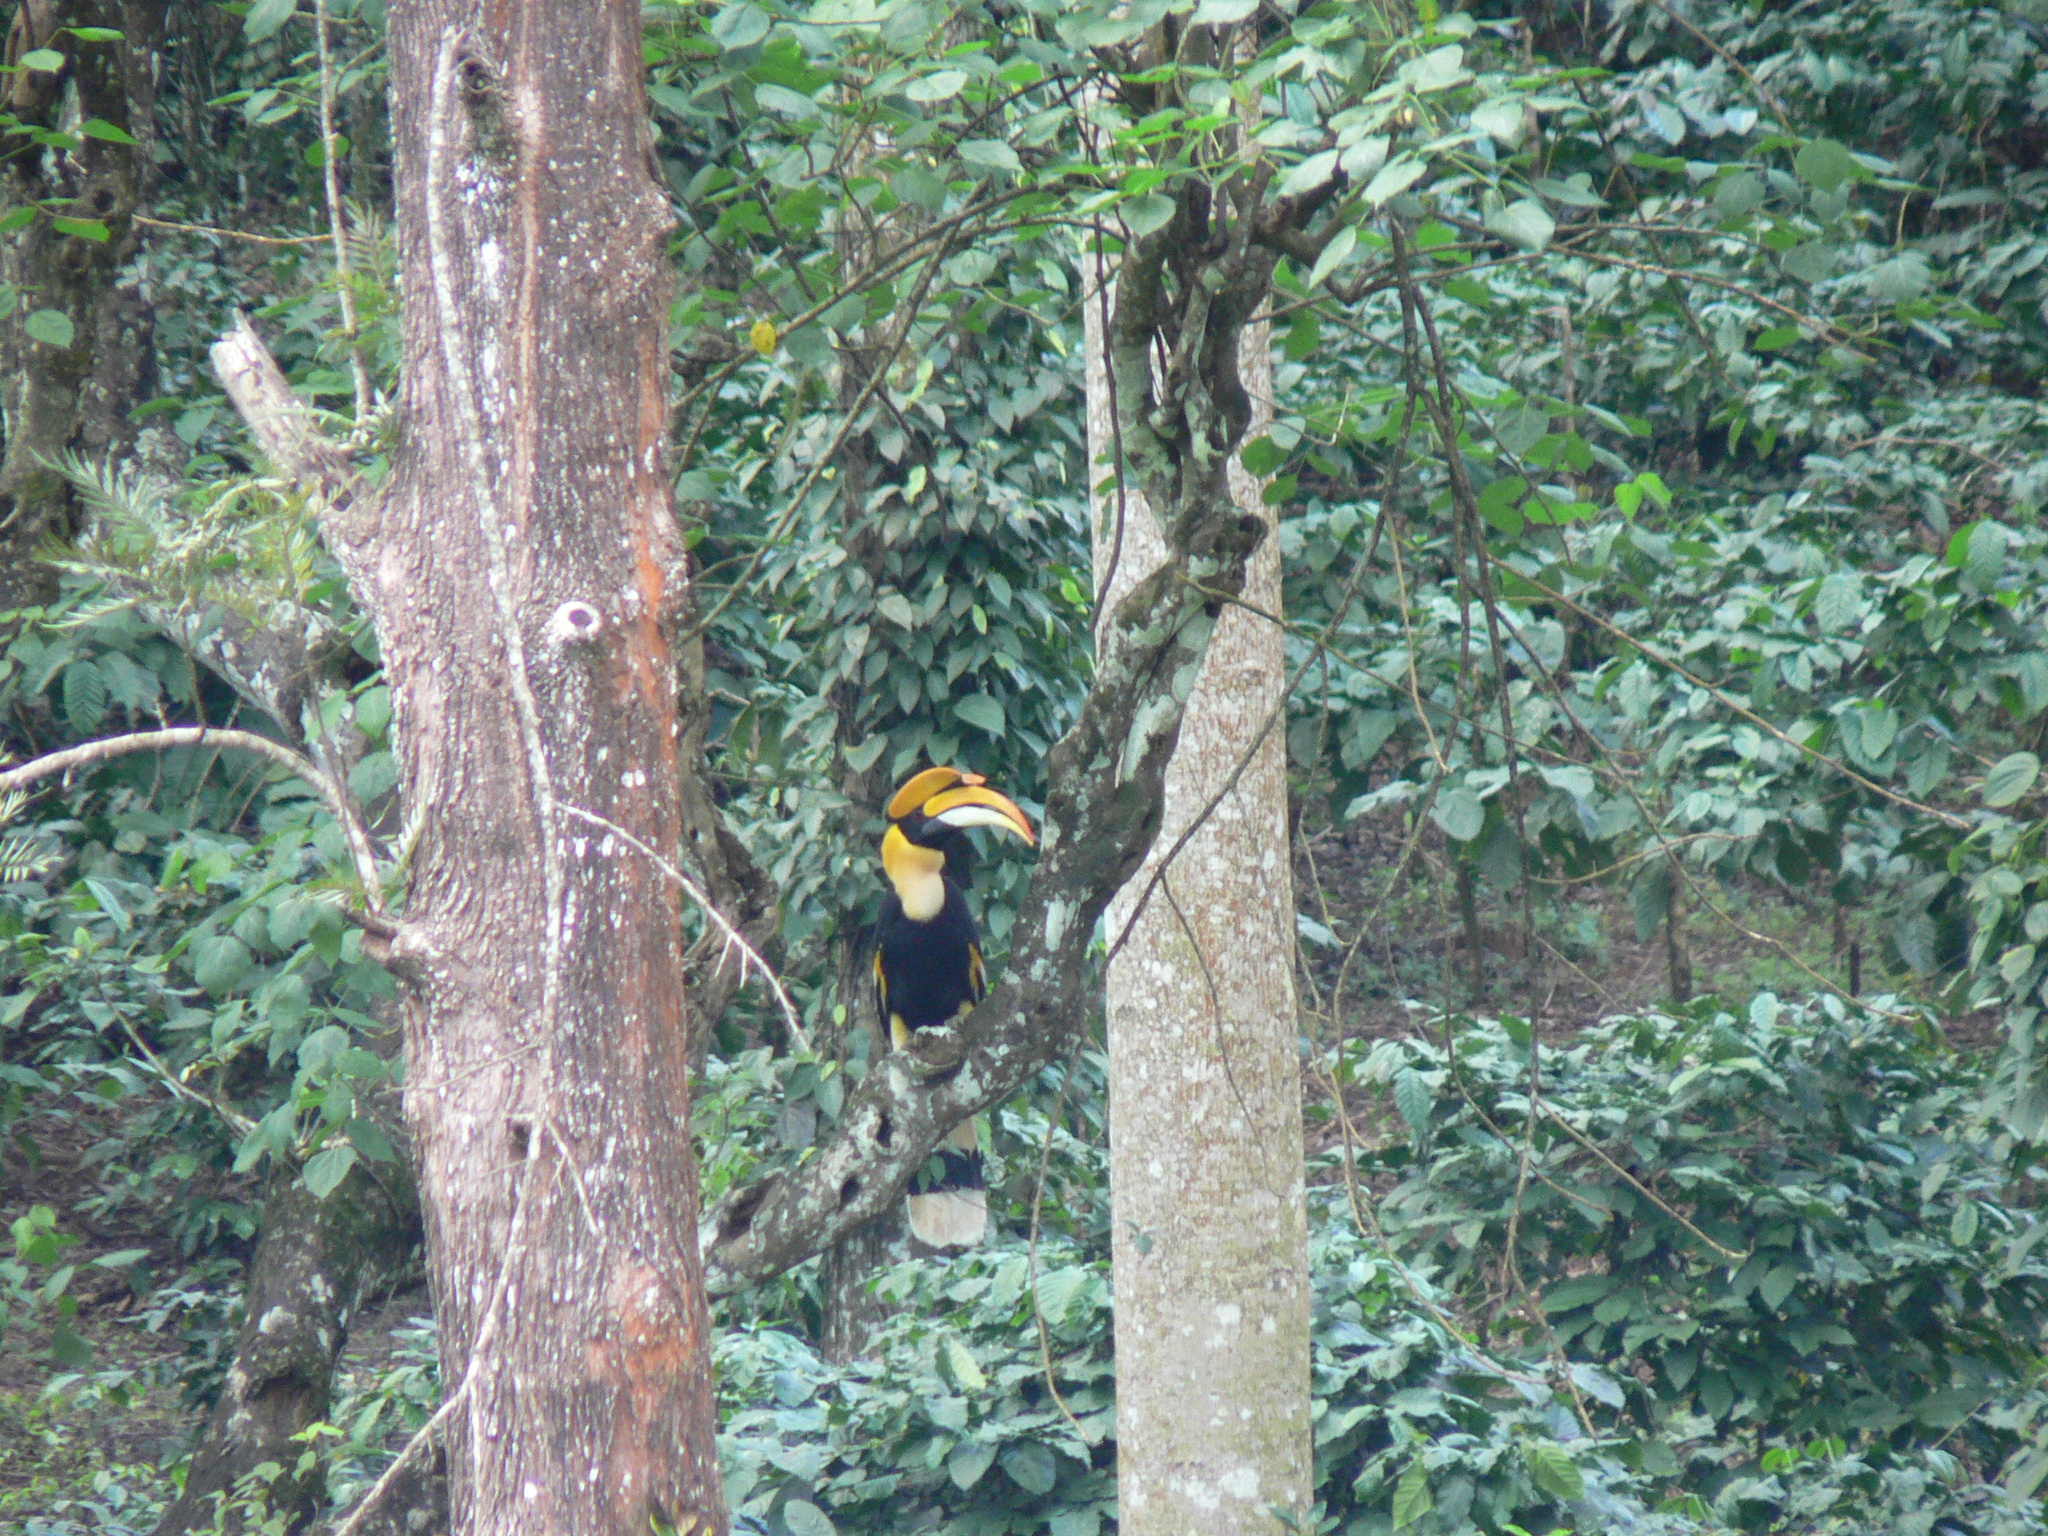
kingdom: Animalia
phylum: Chordata
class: Aves
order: Bucerotiformes
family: Bucerotidae
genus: Buceros
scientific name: Buceros bicornis
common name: Great hornbill
